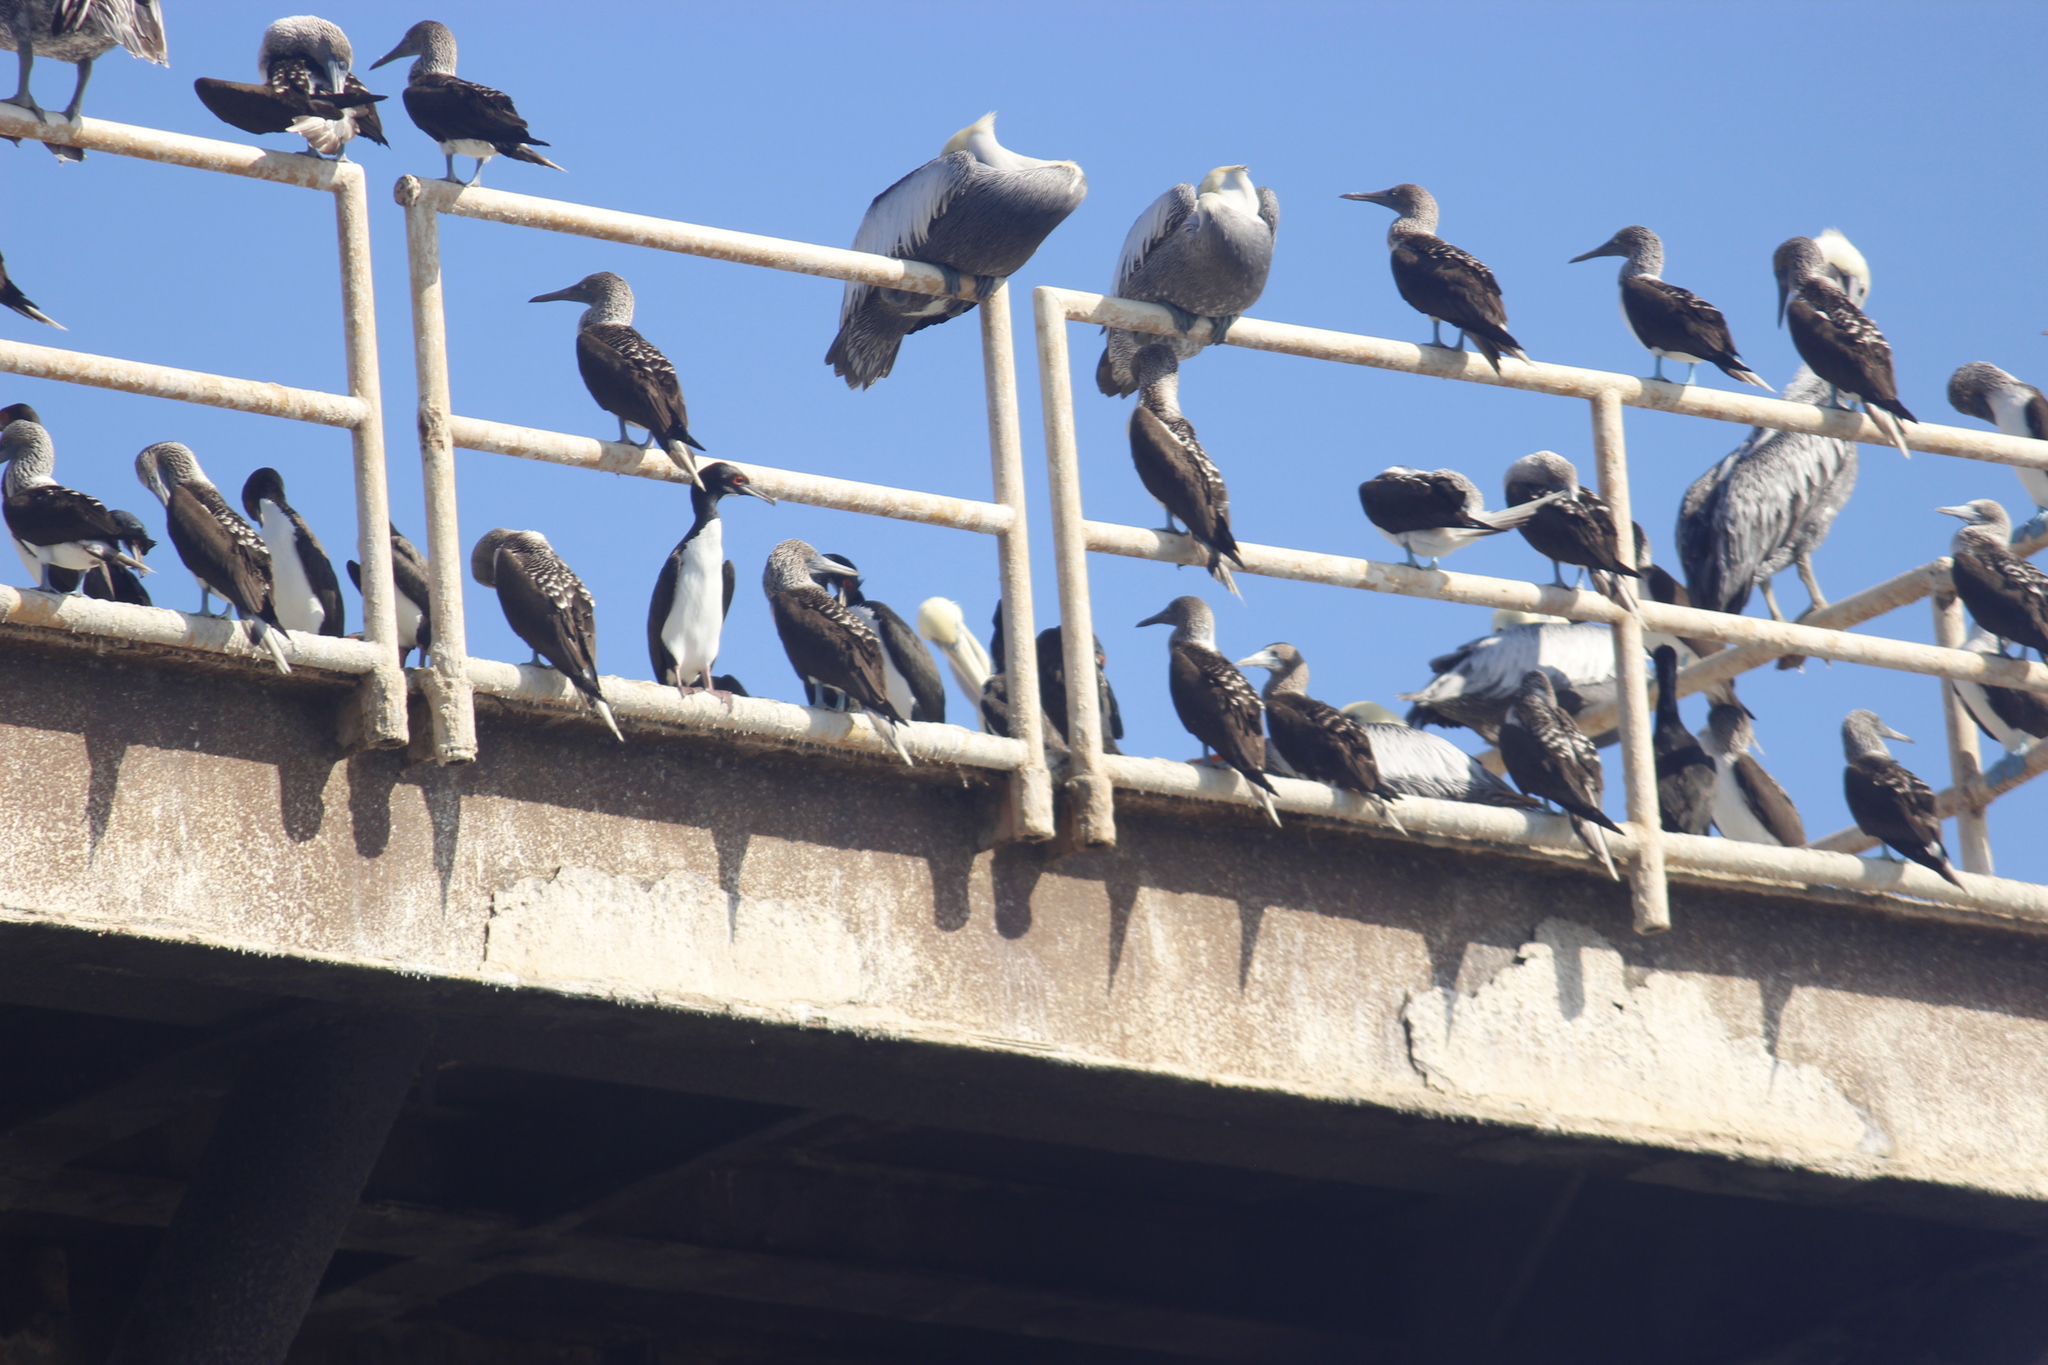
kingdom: Animalia
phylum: Chordata
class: Aves
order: Suliformes
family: Phalacrocoracidae
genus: Leucocarbo
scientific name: Leucocarbo bougainvillii
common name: Guanay cormorant
